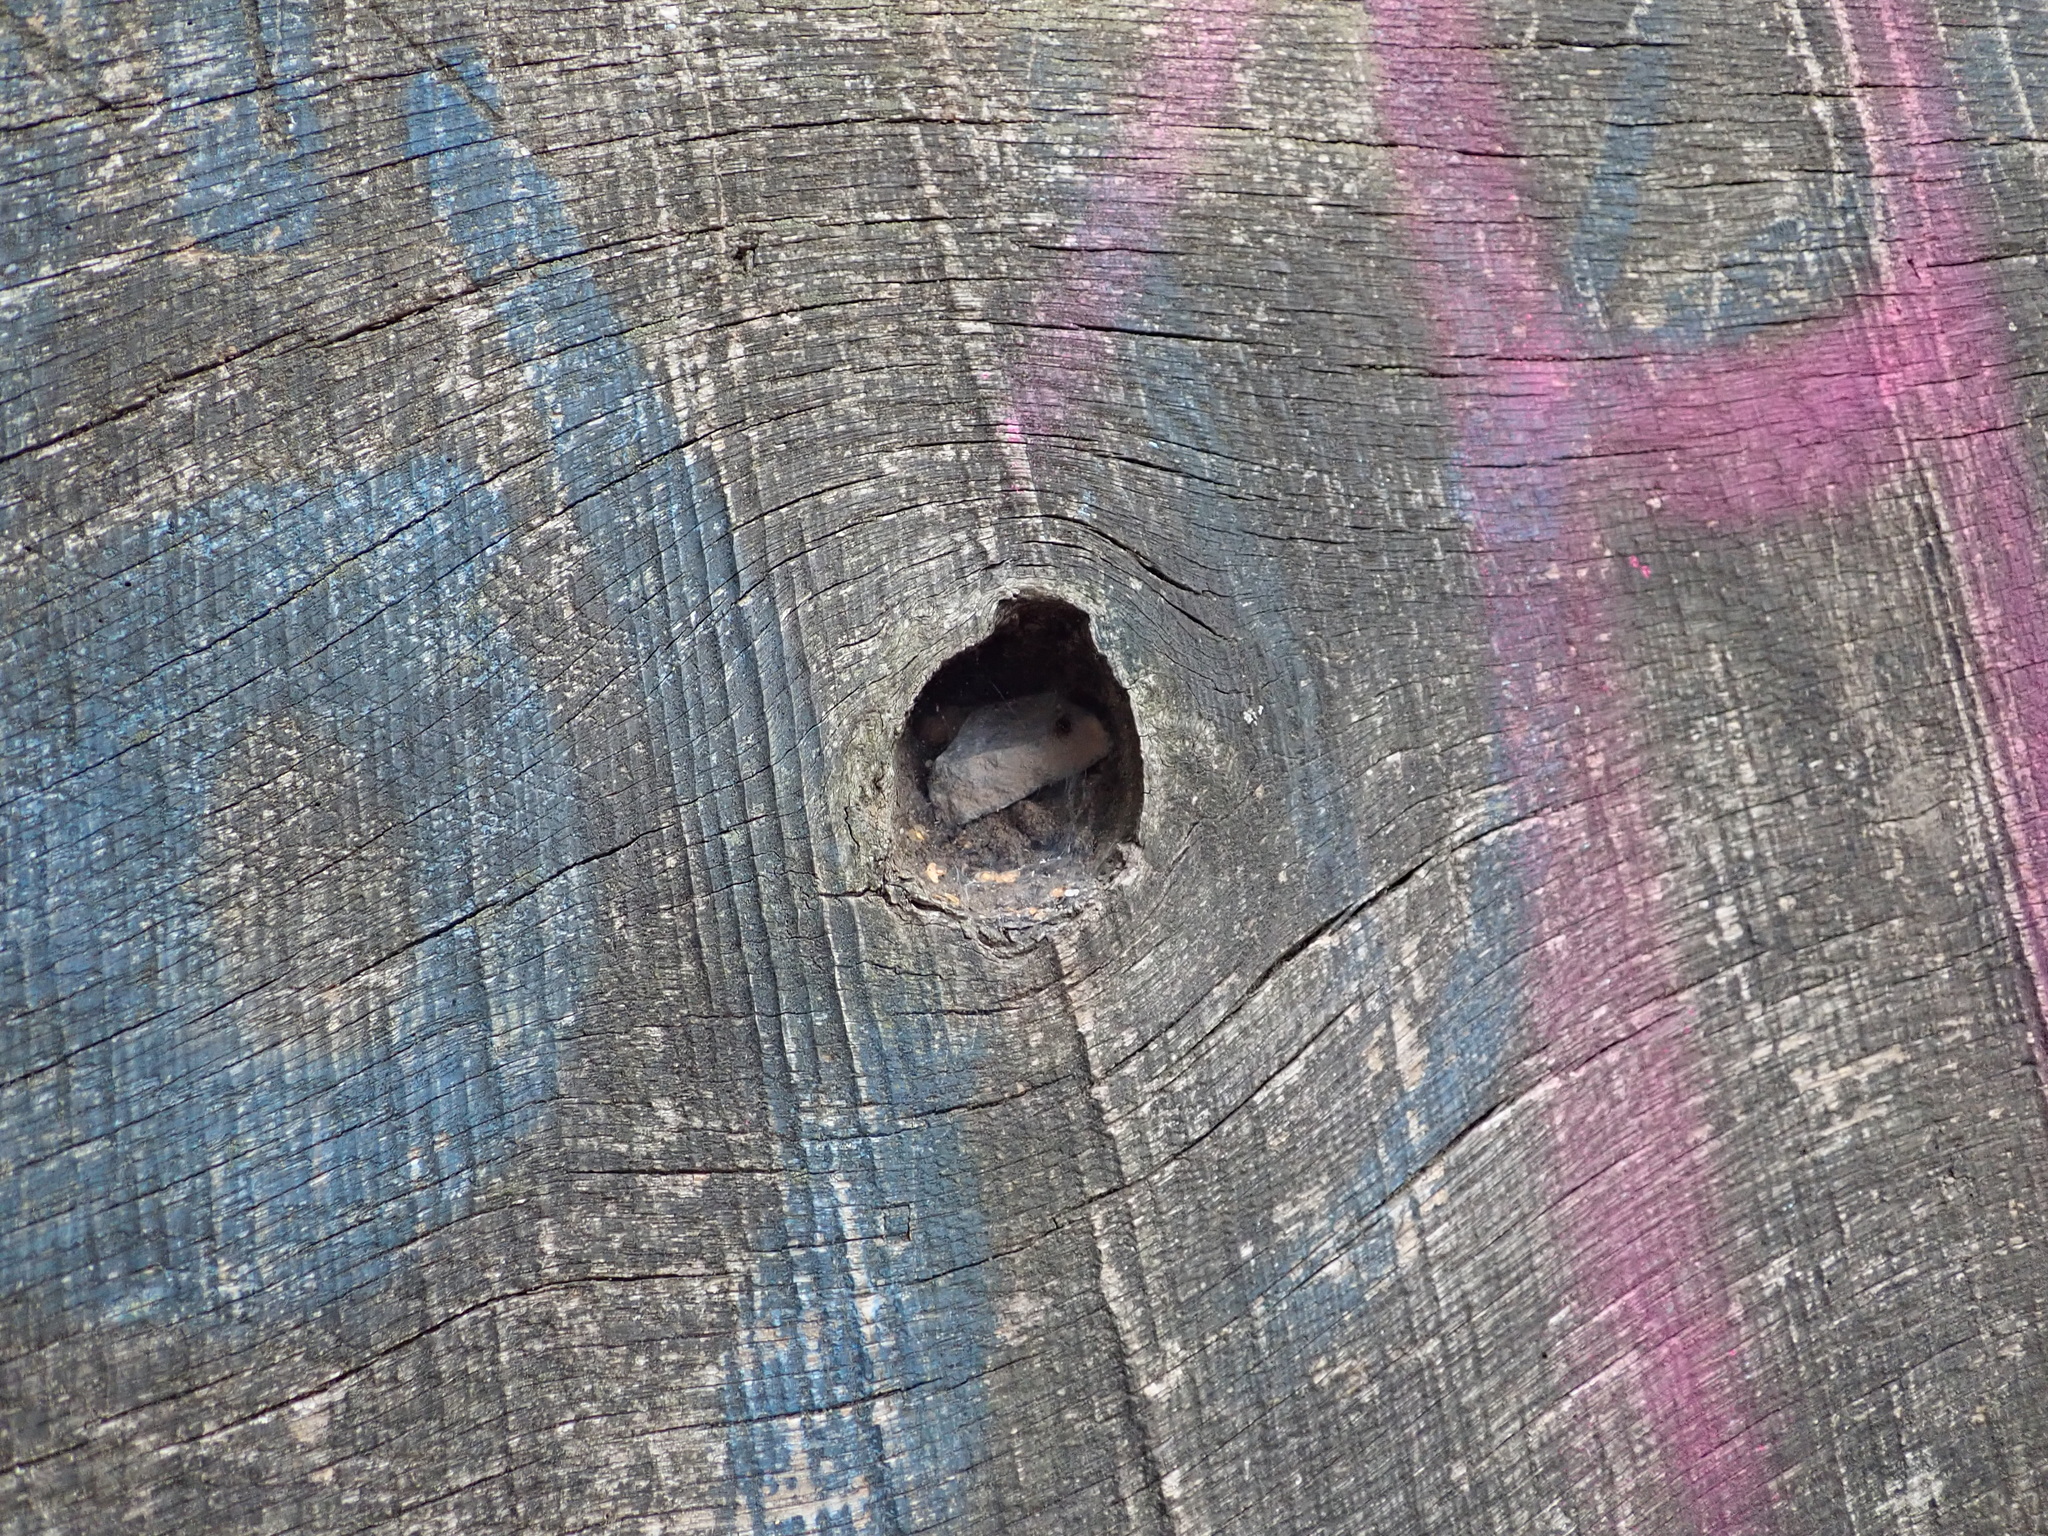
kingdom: Animalia
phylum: Arthropoda
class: Arachnida
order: Araneae
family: Agelenidae
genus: Textrix
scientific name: Textrix denticulata
